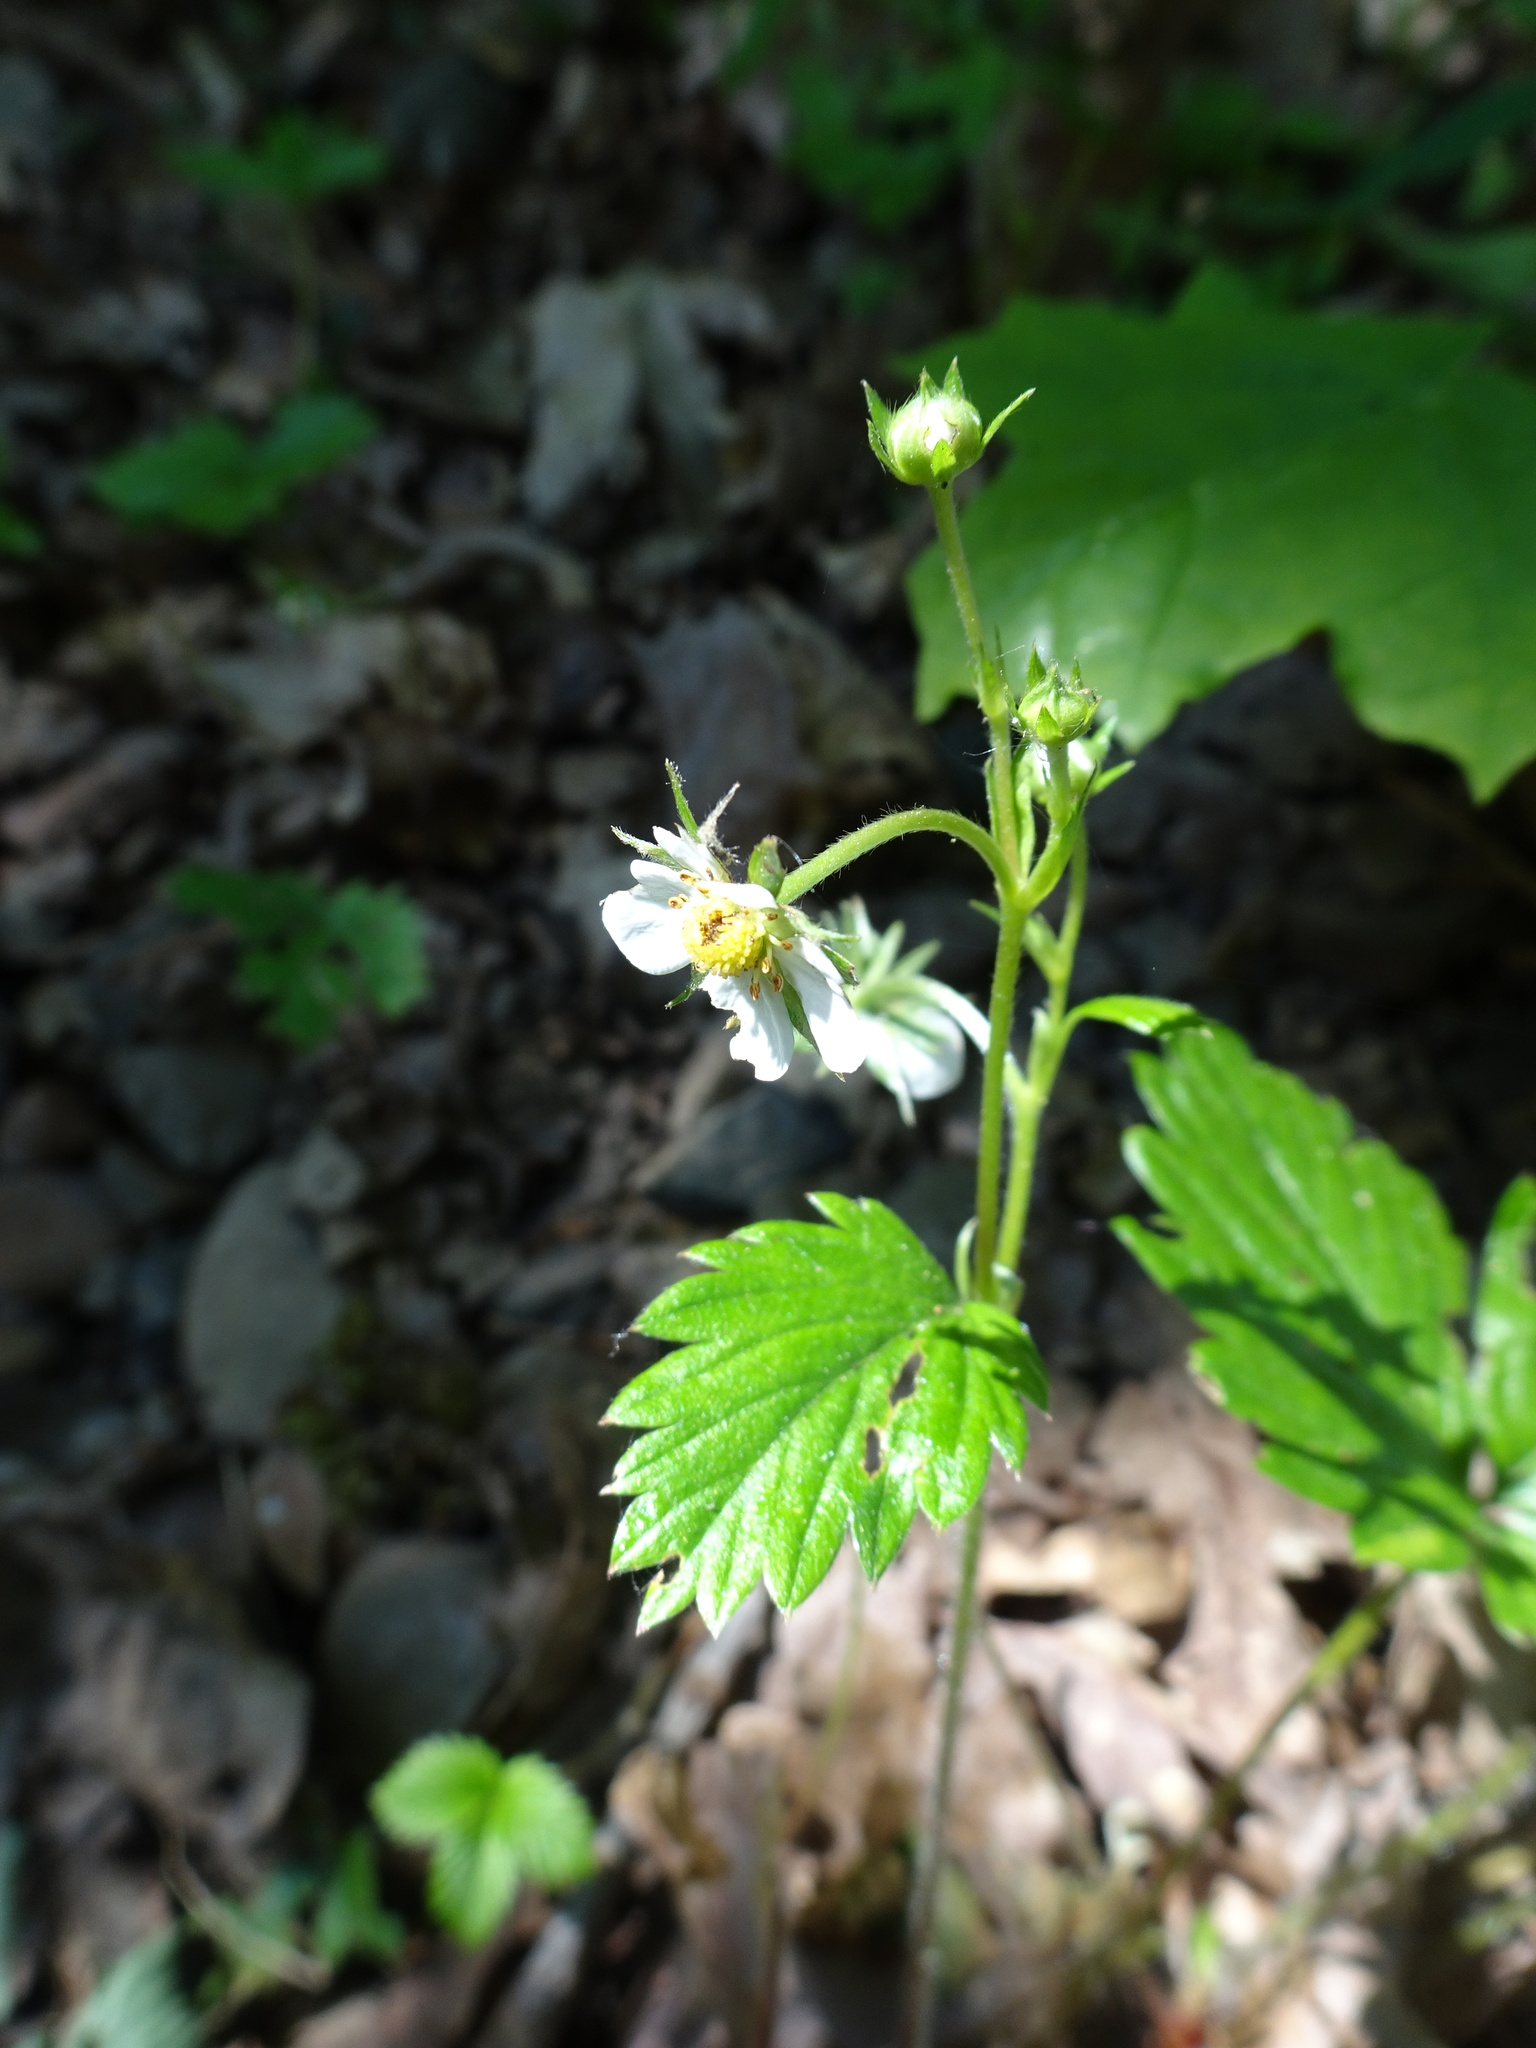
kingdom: Plantae
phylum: Tracheophyta
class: Magnoliopsida
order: Rosales
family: Rosaceae
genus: Fragaria
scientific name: Fragaria vesca
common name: Wild strawberry
